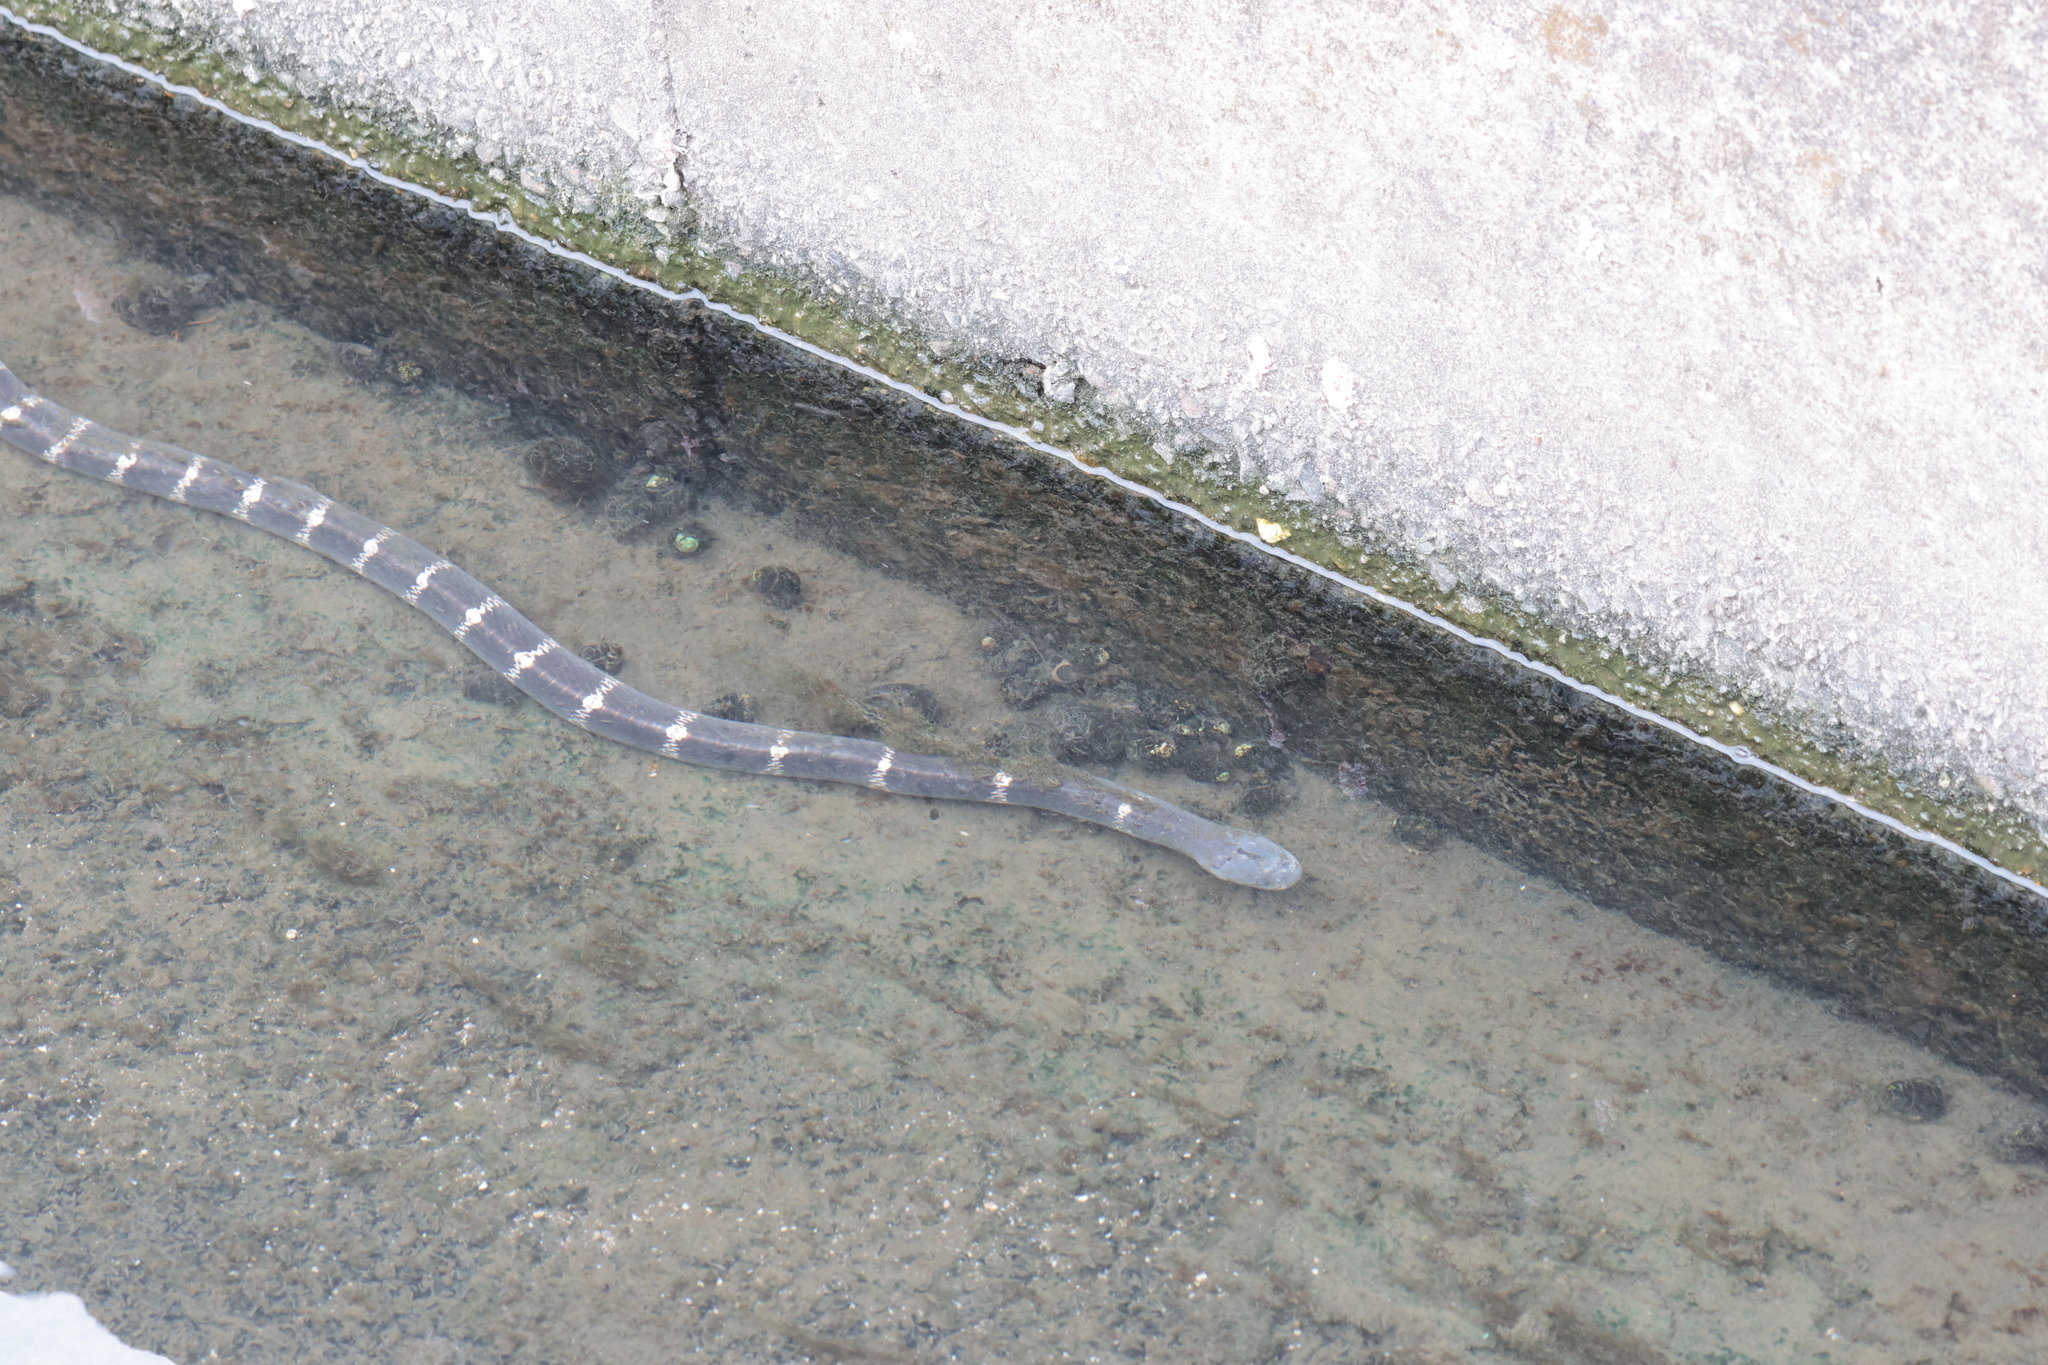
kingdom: Animalia
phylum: Chordata
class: Squamata
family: Elapidae
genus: Bungarus
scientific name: Bungarus multicinctus
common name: Many-banded krait
